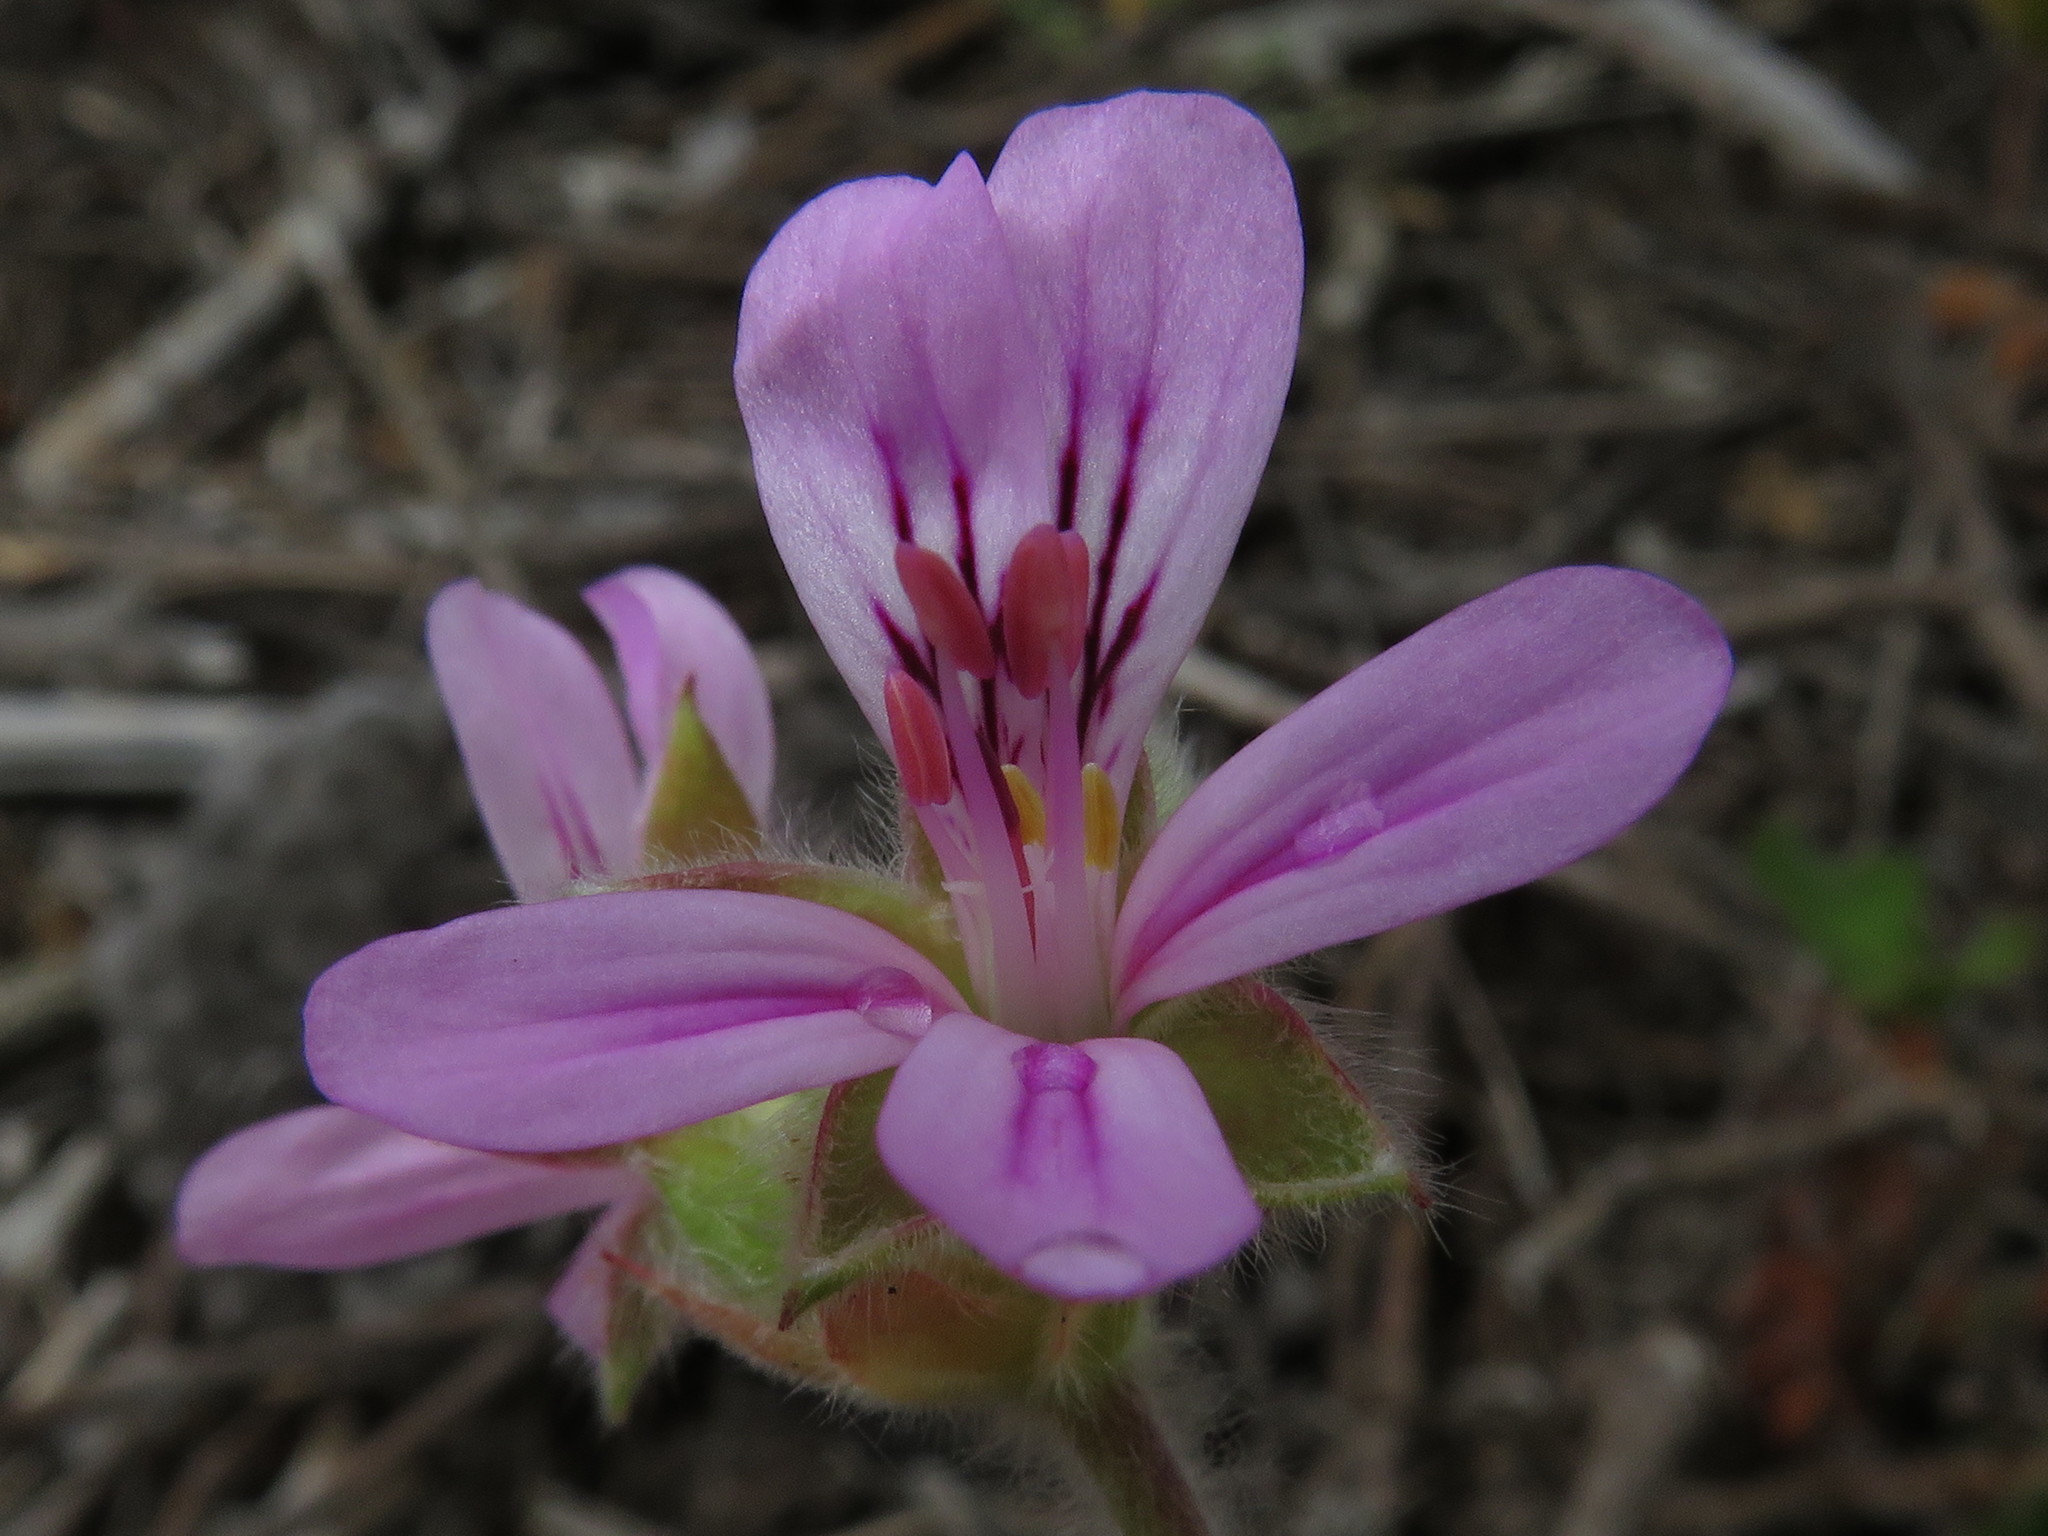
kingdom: Plantae
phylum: Tracheophyta
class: Magnoliopsida
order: Geraniales
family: Geraniaceae
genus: Pelargonium
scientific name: Pelargonium capitatum
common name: Rose scented geranium
